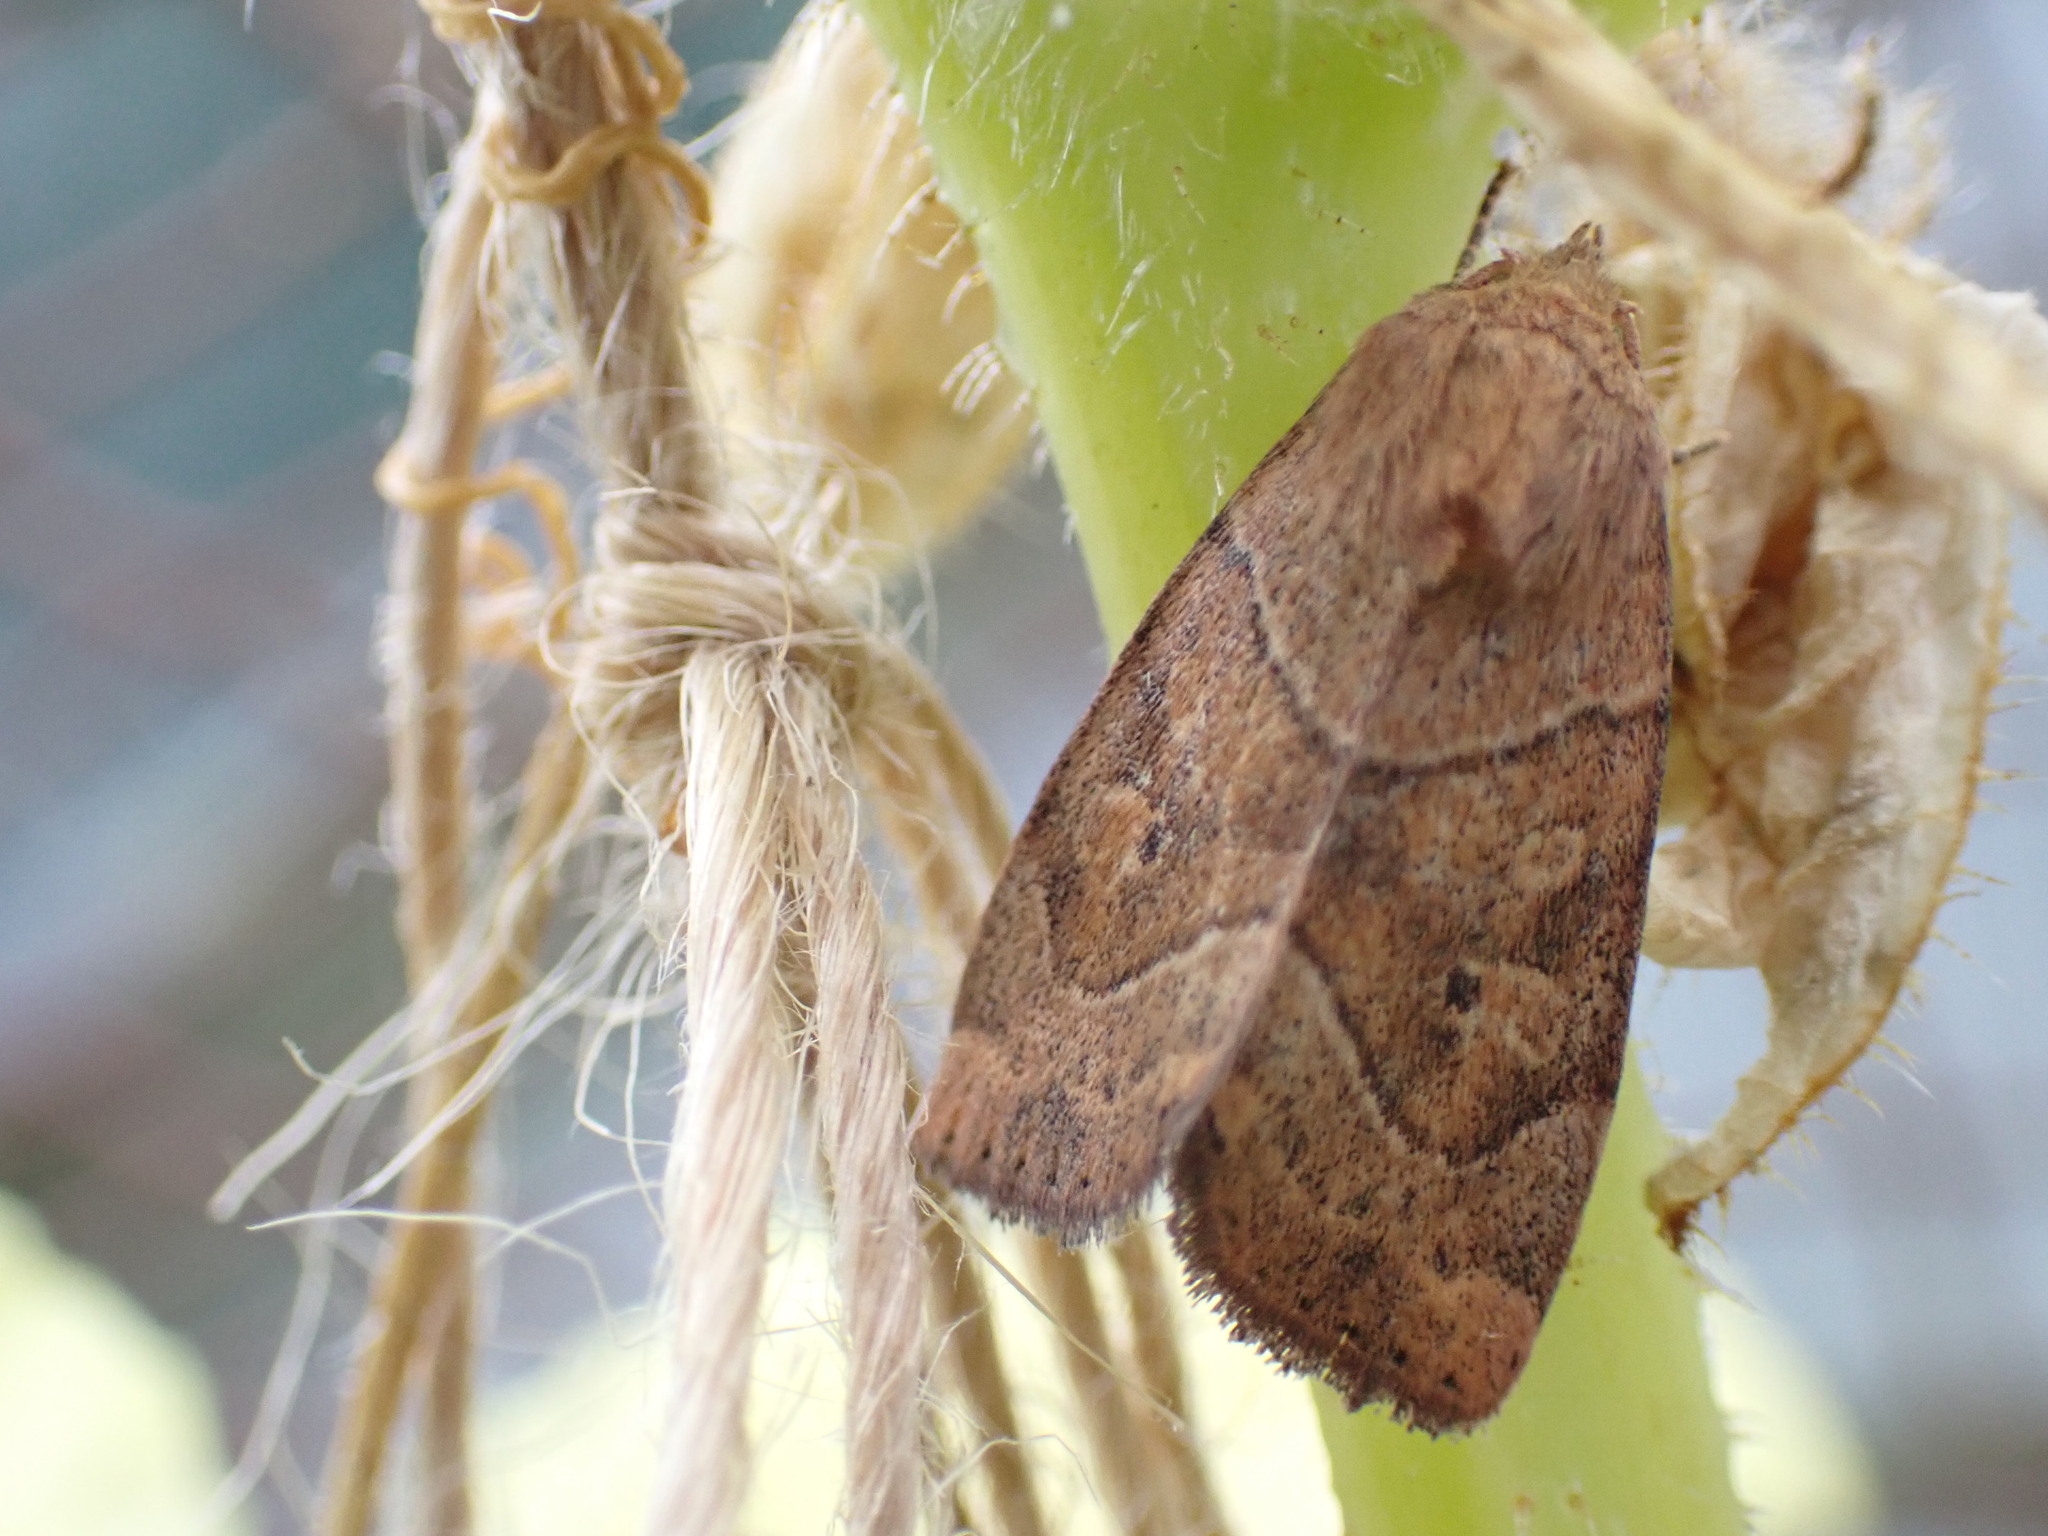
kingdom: Animalia
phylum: Arthropoda
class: Insecta
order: Lepidoptera
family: Noctuidae
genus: Cosmia
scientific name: Cosmia trapezina
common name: Dun-bar
